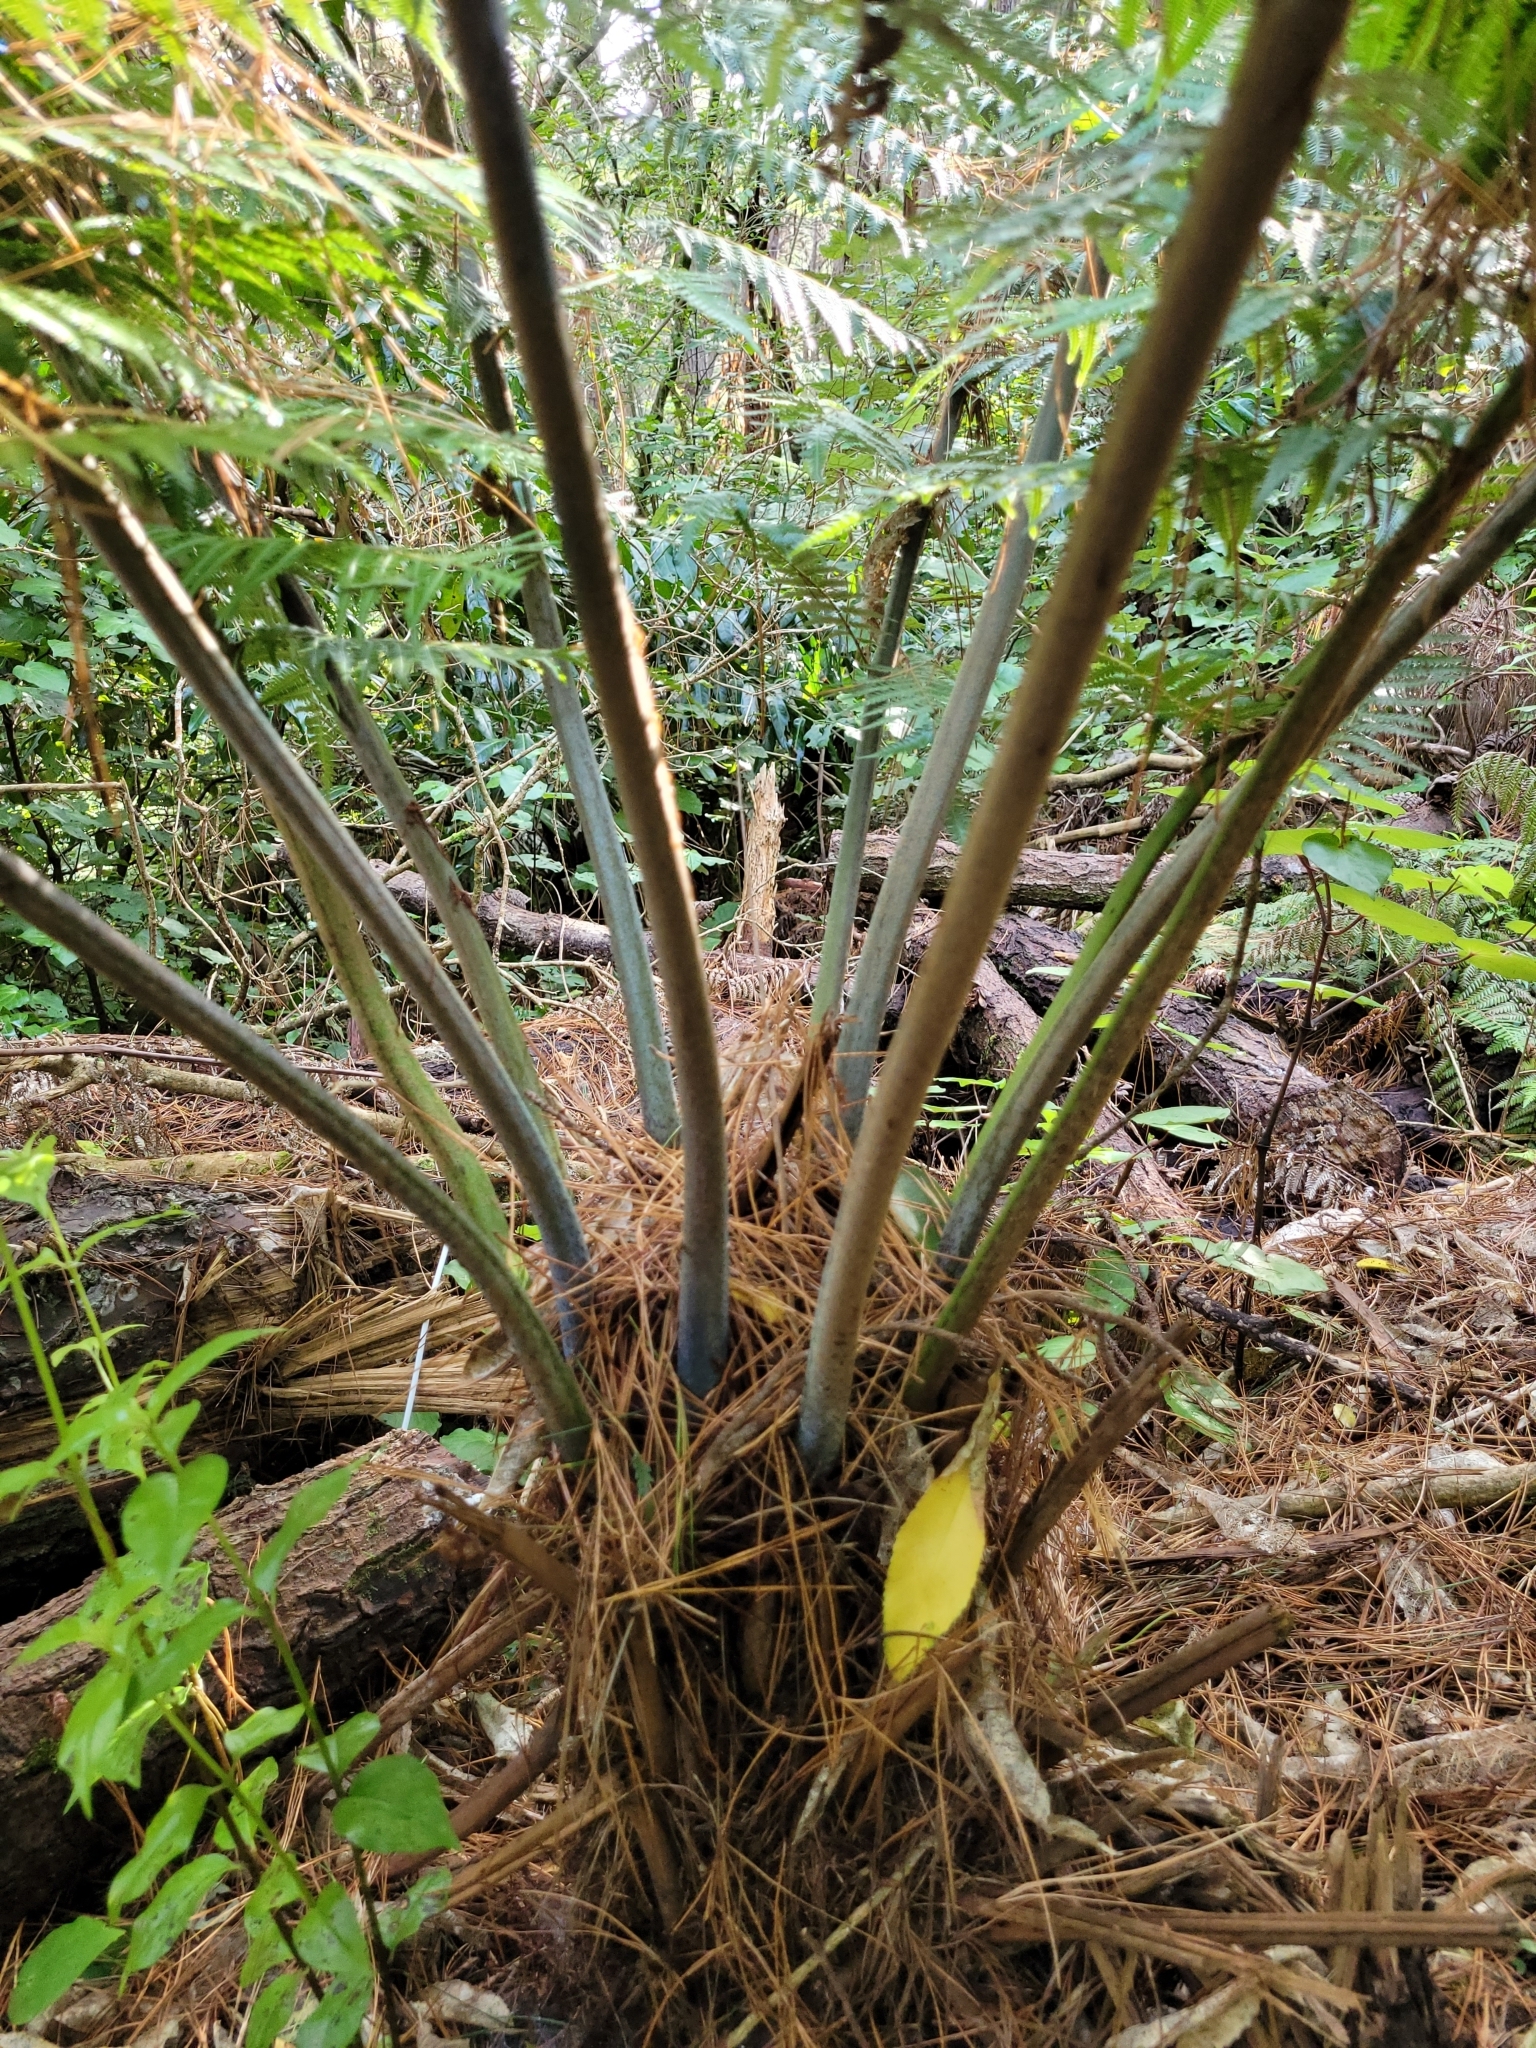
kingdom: Plantae
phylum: Tracheophyta
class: Polypodiopsida
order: Cyatheales
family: Cyatheaceae
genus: Alsophila
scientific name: Alsophila dealbata
